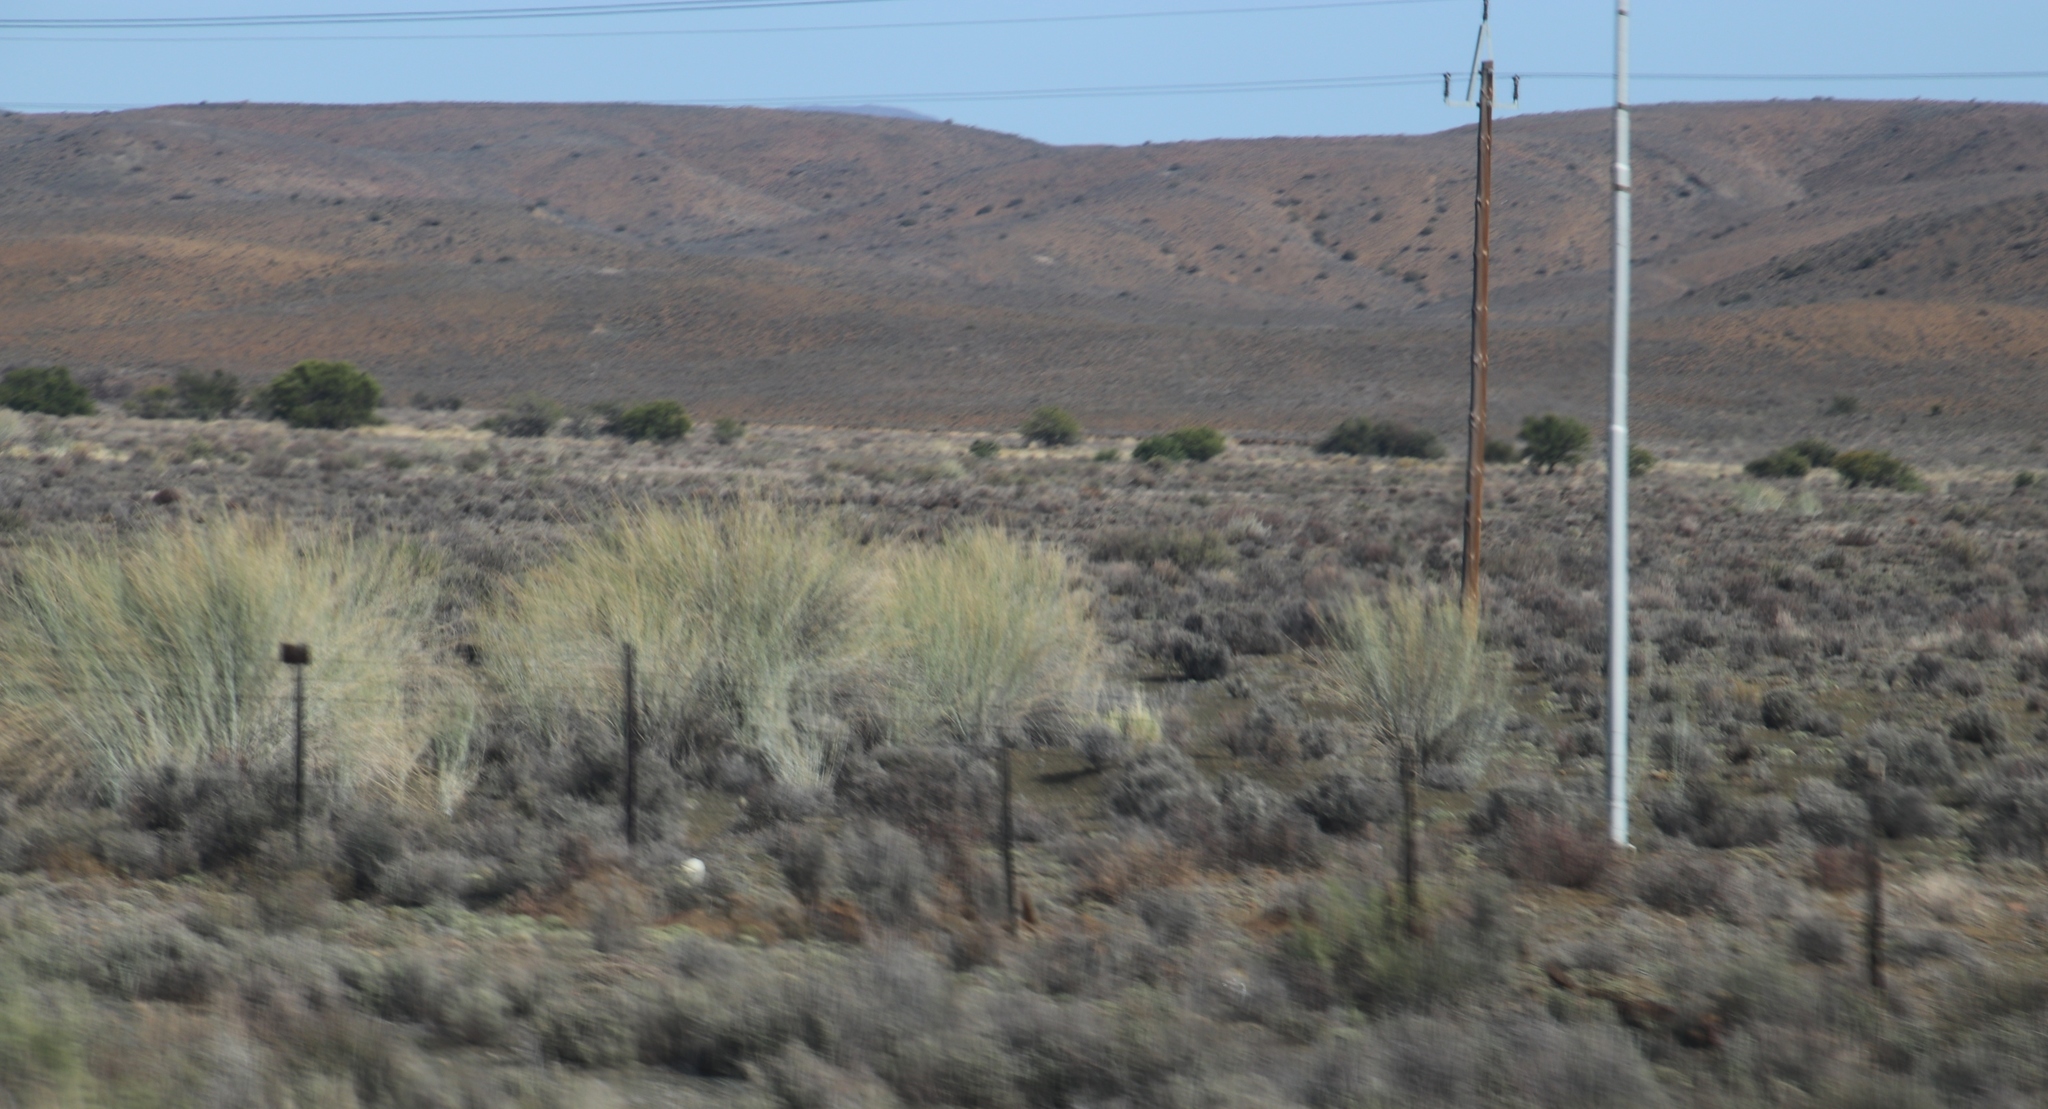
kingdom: Plantae
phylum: Tracheophyta
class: Magnoliopsida
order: Gentianales
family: Apocynaceae
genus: Gomphocarpus
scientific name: Gomphocarpus filiformis
